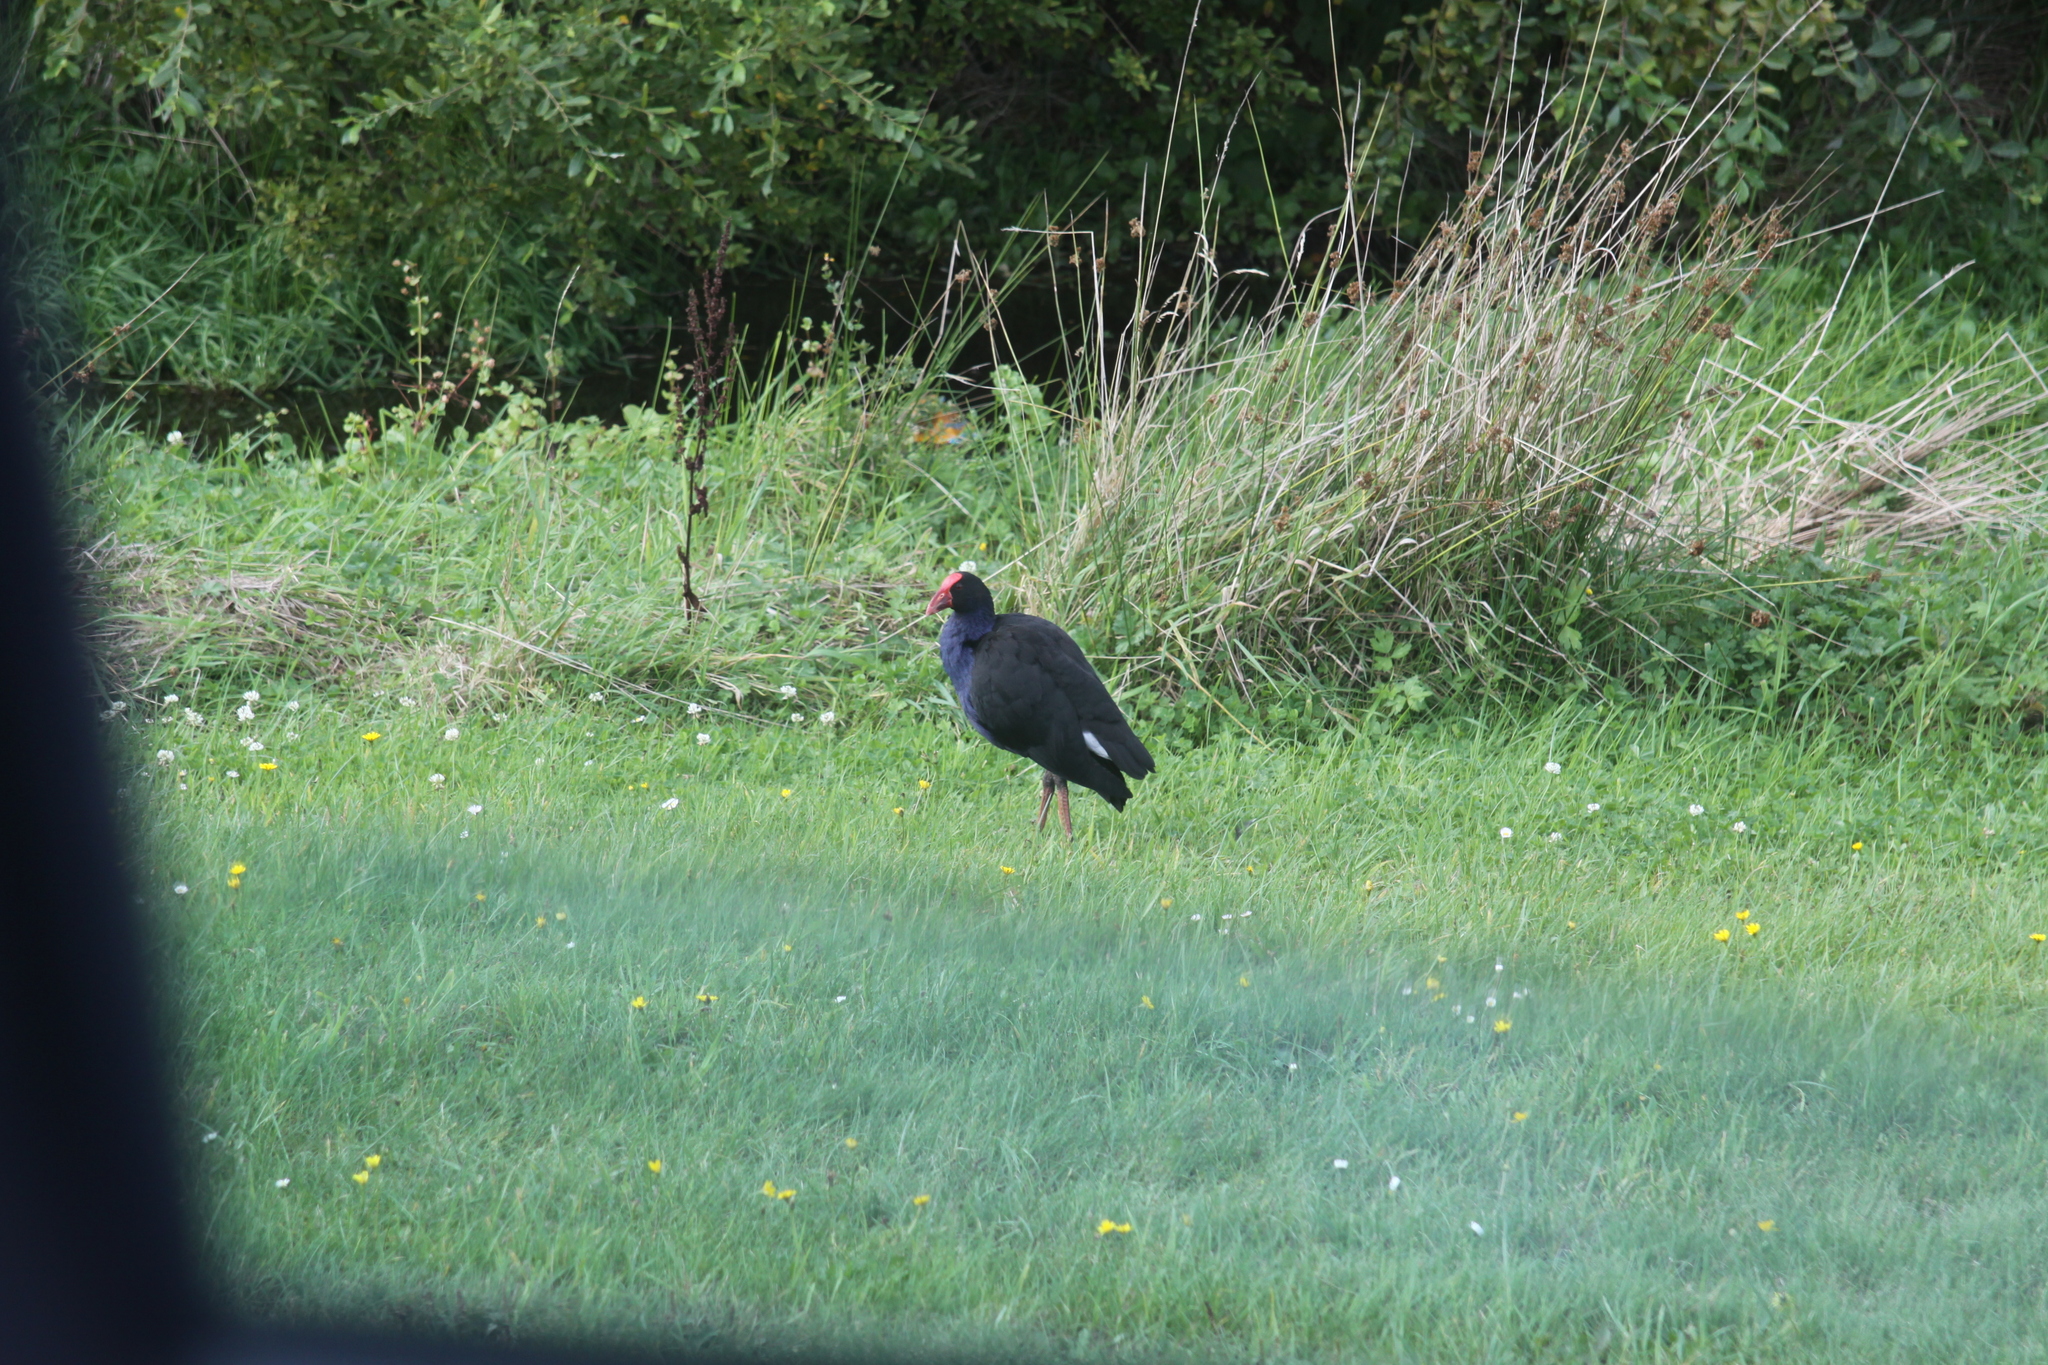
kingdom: Animalia
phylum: Chordata
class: Aves
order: Gruiformes
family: Rallidae
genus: Porphyrio
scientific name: Porphyrio melanotus
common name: Australasian swamphen
